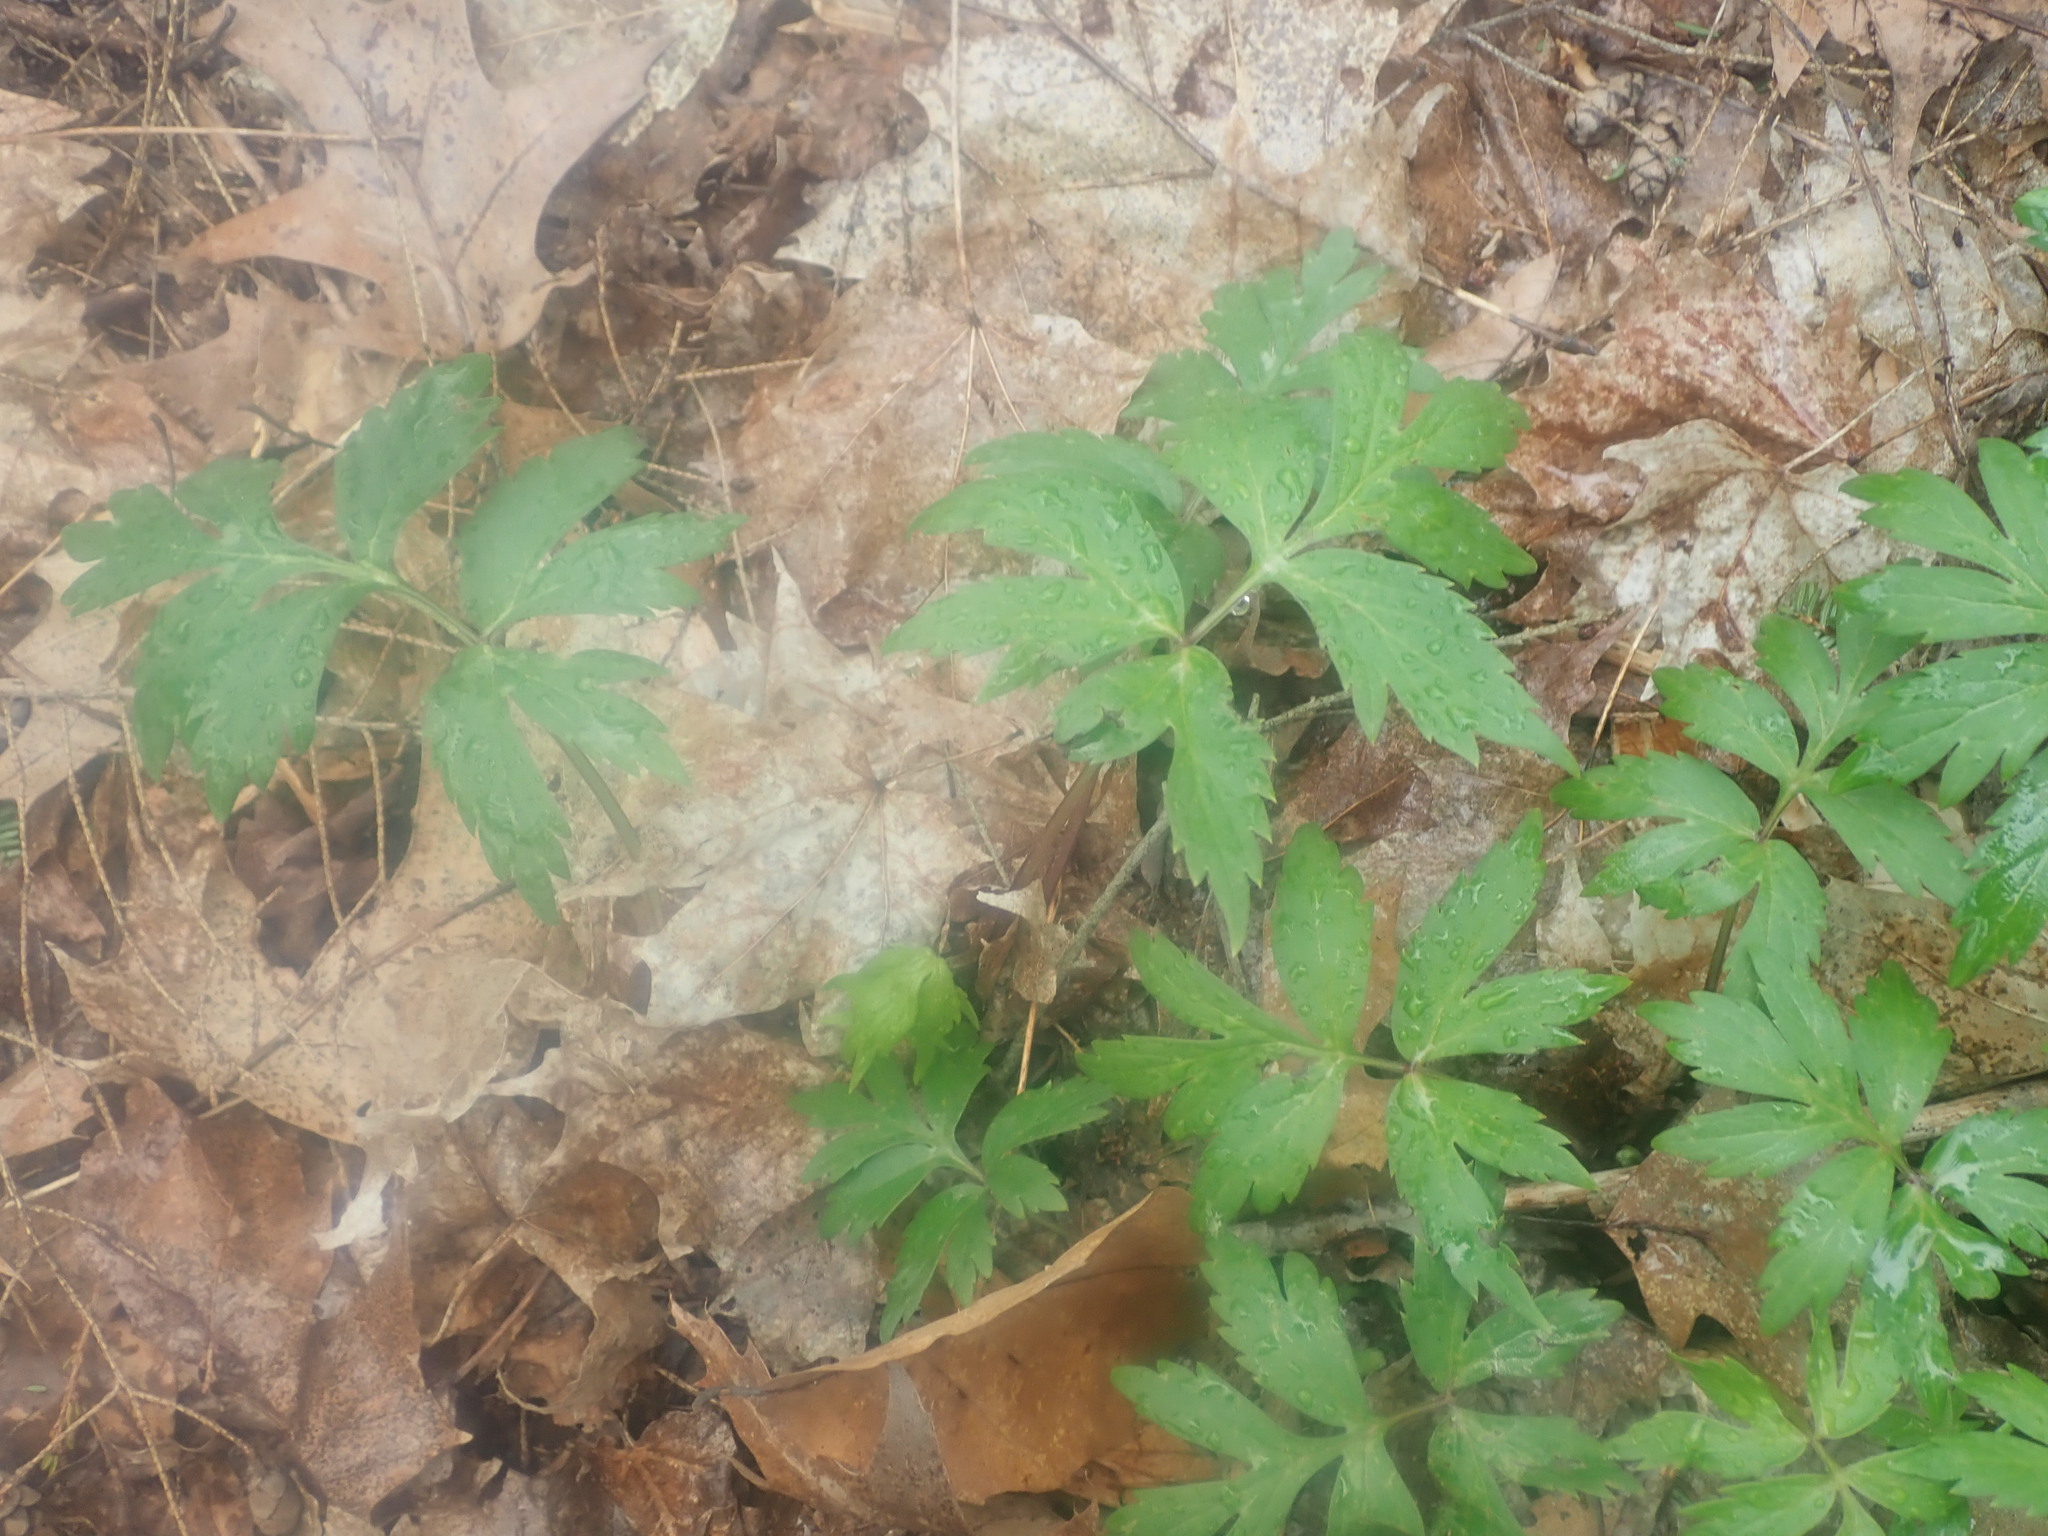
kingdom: Plantae
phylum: Tracheophyta
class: Magnoliopsida
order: Boraginales
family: Hydrophyllaceae
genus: Hydrophyllum
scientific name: Hydrophyllum virginianum
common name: Virginia waterleaf
